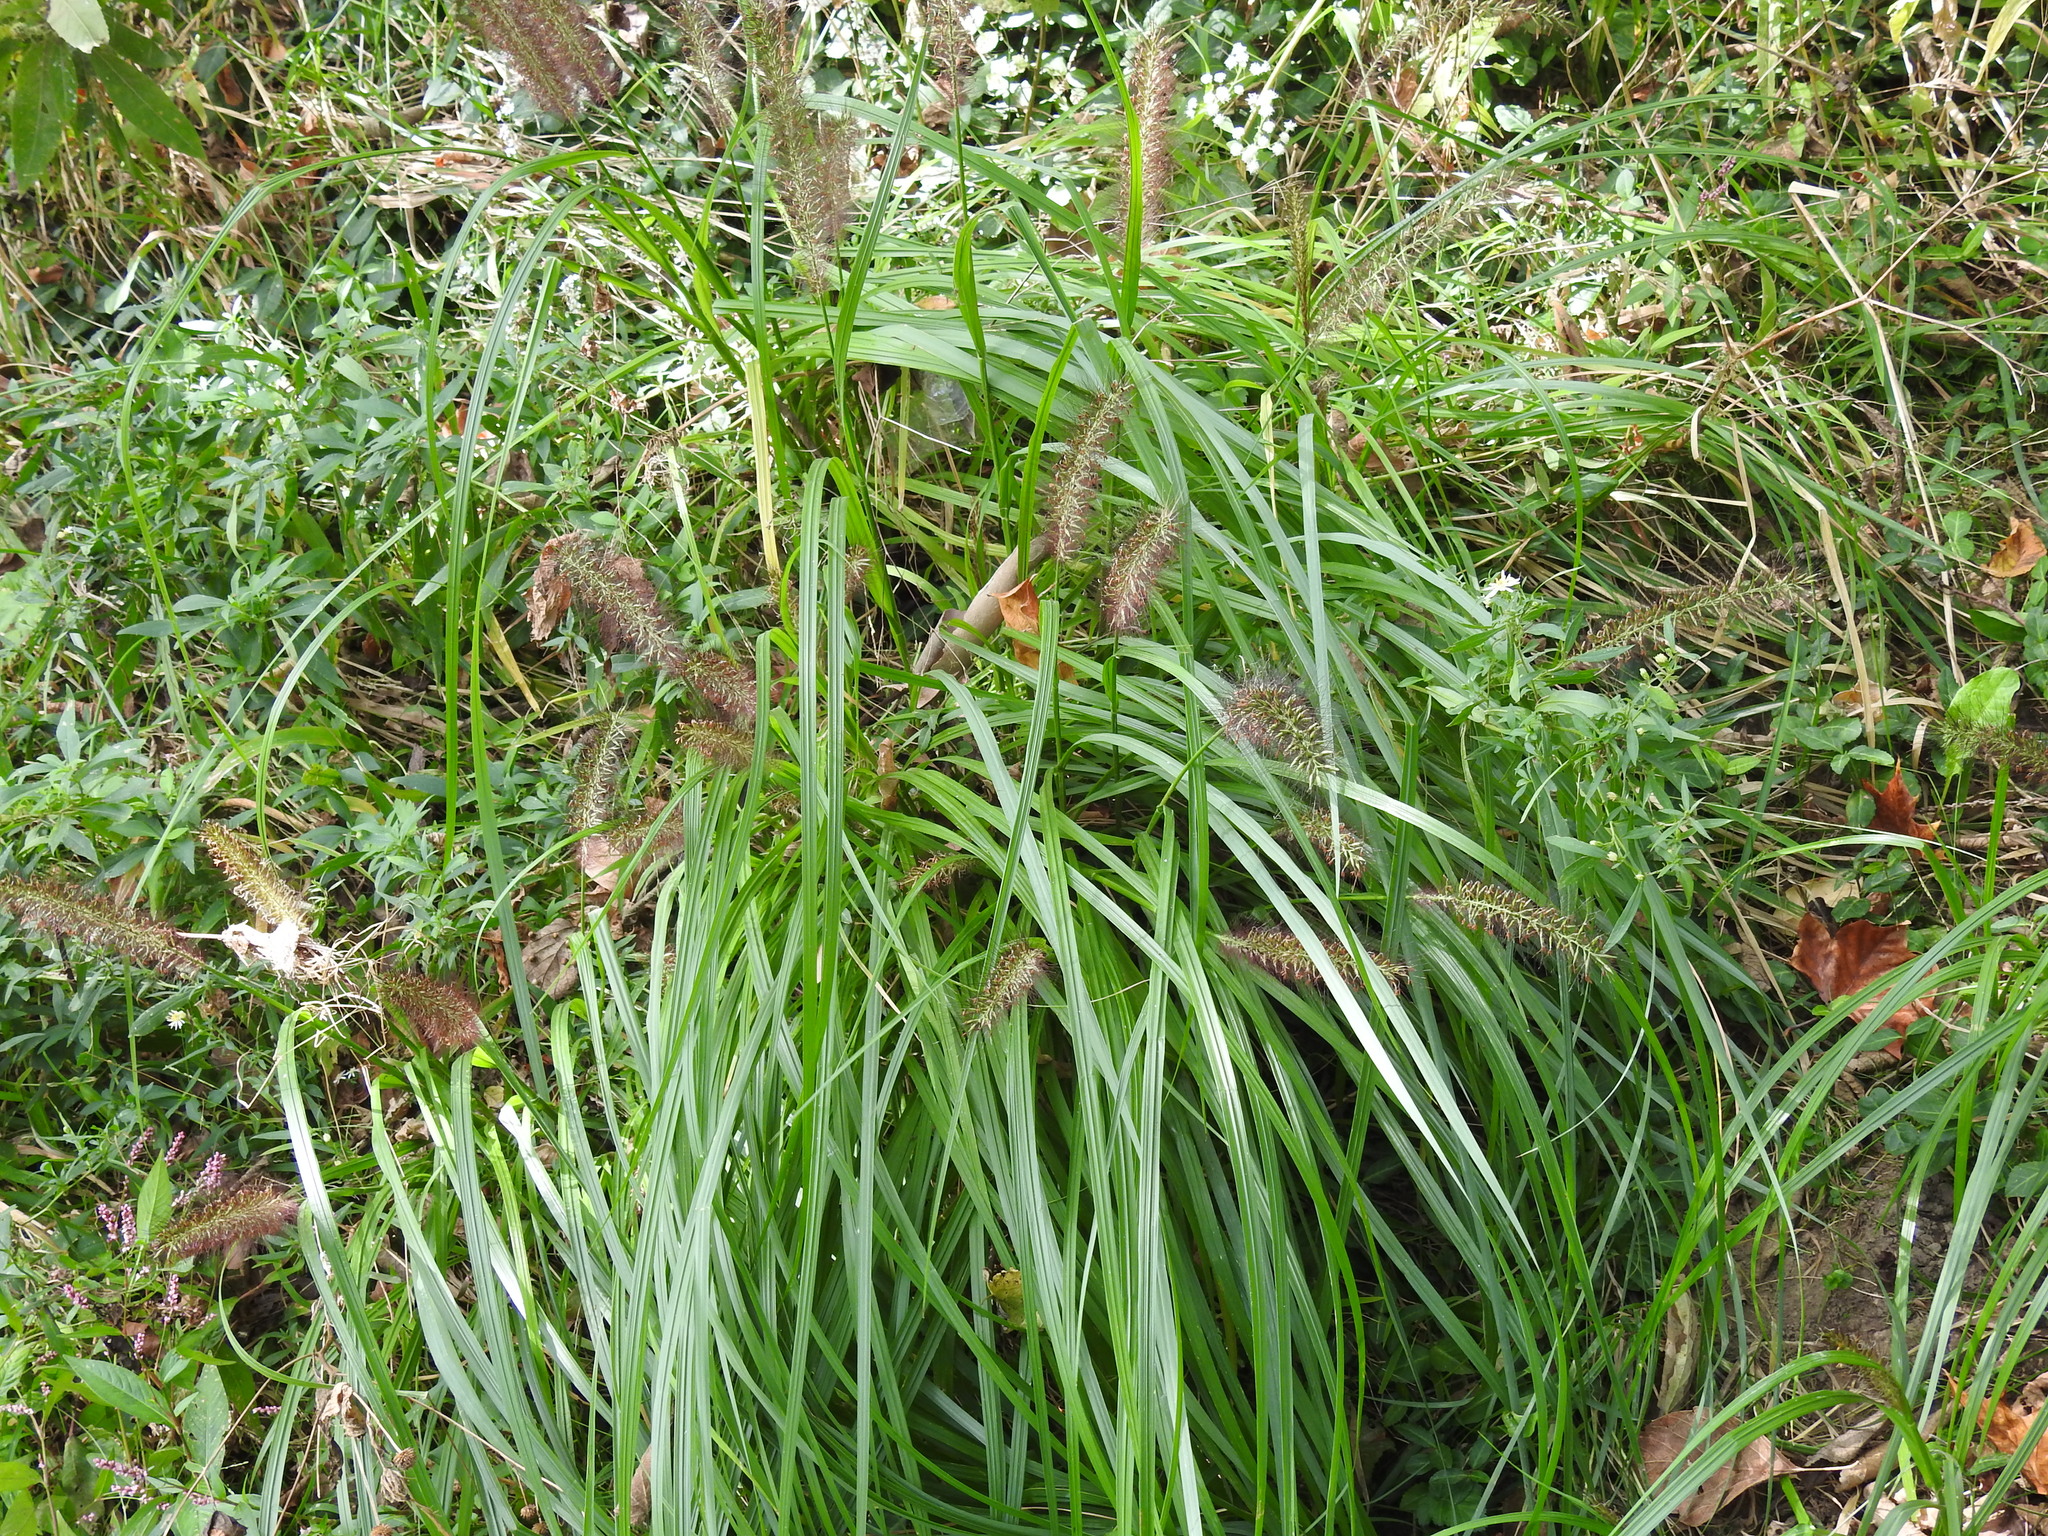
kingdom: Plantae
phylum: Tracheophyta
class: Liliopsida
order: Poales
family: Poaceae
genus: Cenchrus
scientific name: Cenchrus alopecuroides
